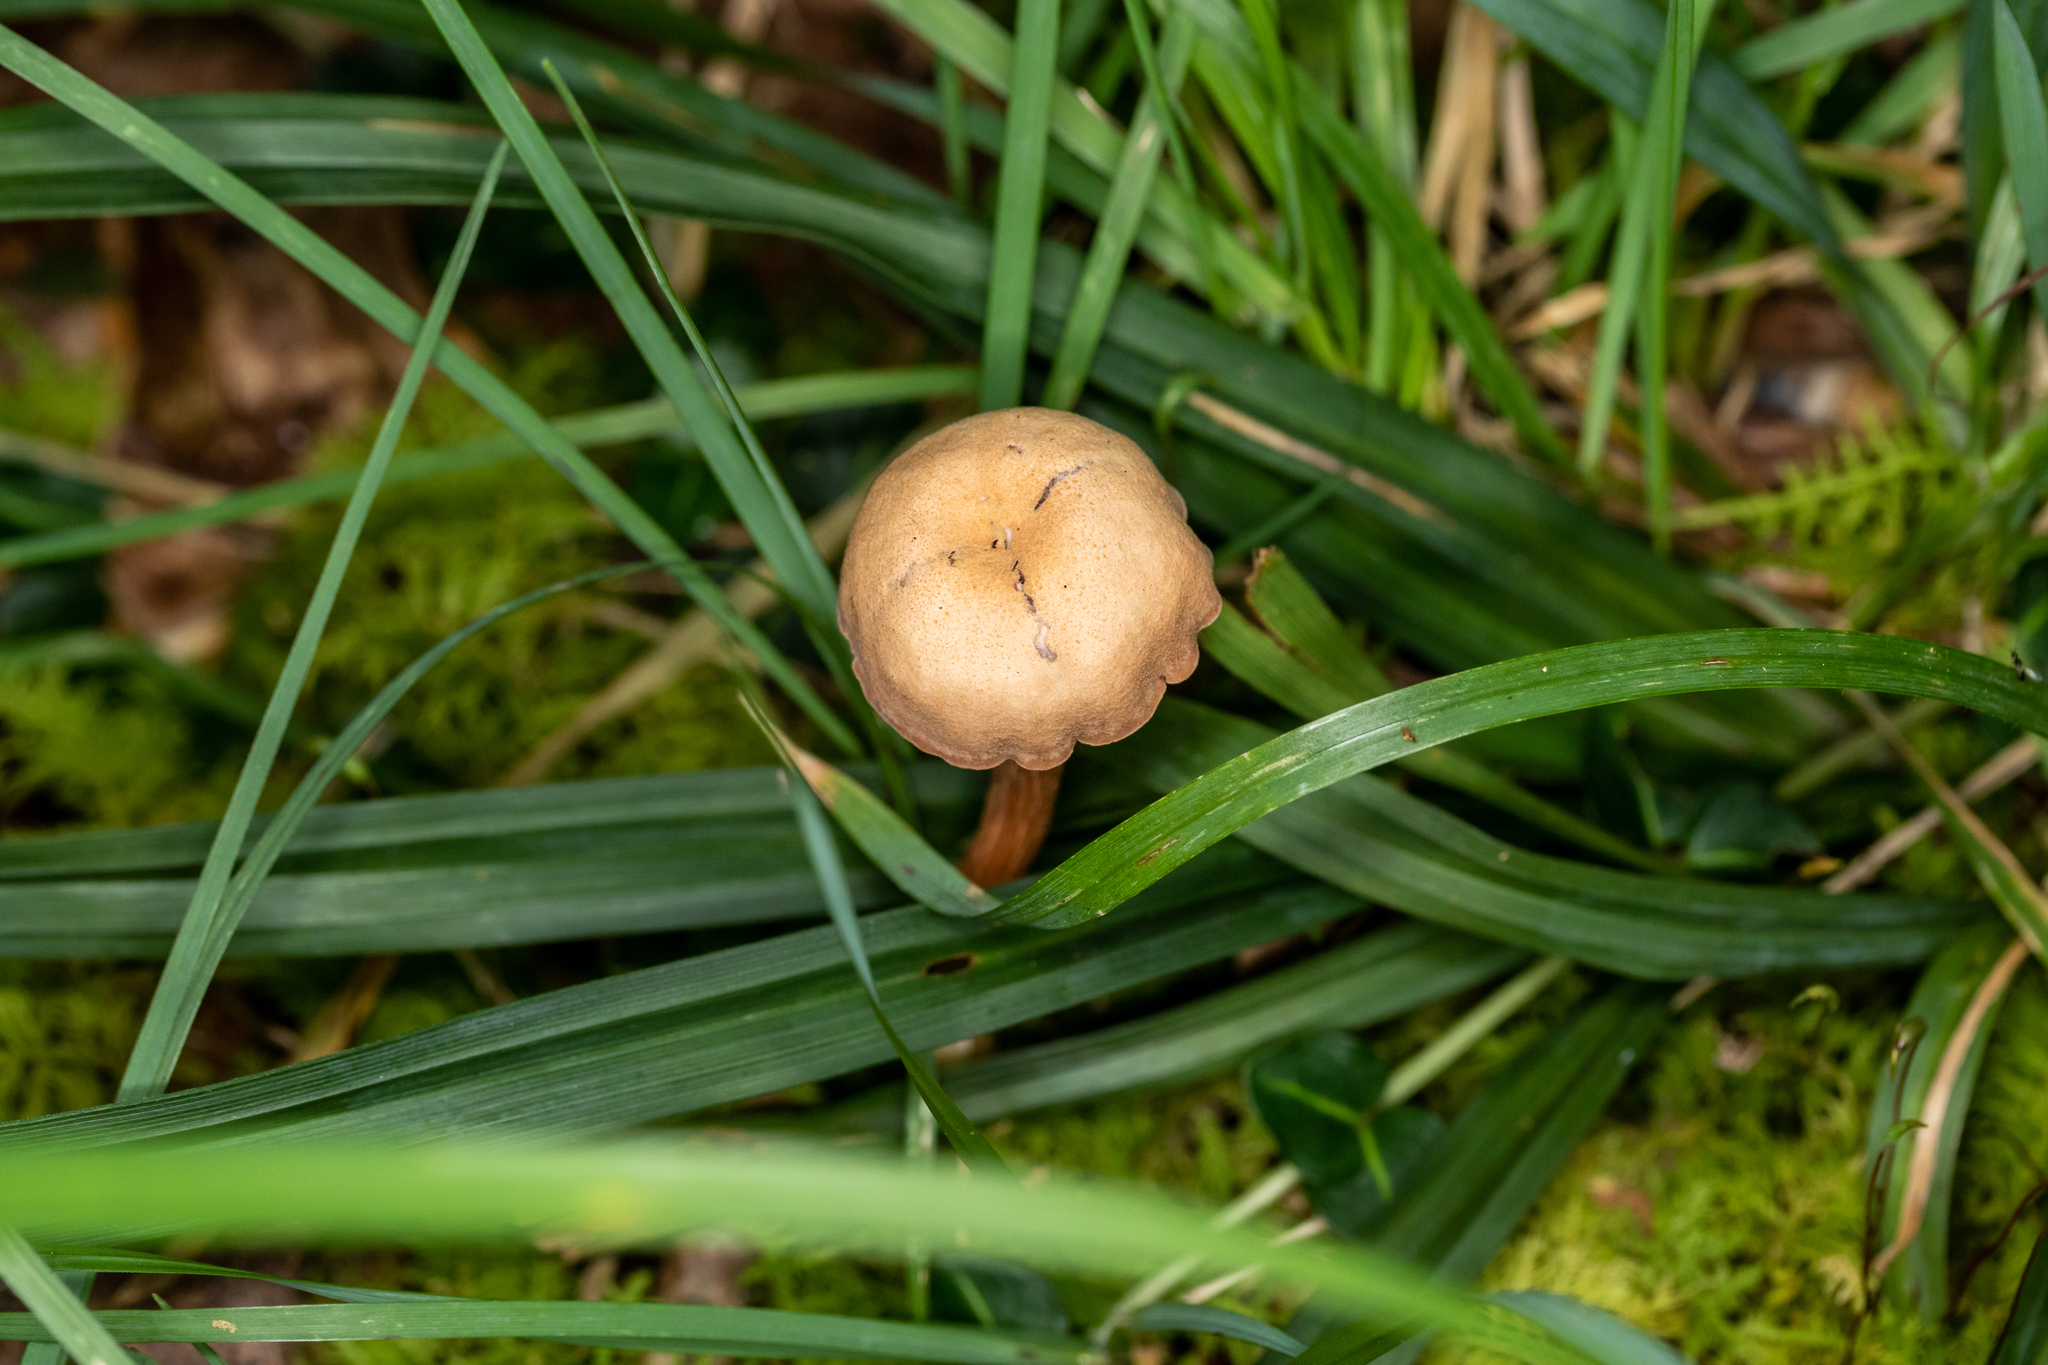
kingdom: Fungi
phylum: Basidiomycota
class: Agaricomycetes
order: Agaricales
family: Hydnangiaceae
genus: Laccaria
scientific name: Laccaria laccata
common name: Deceiver
